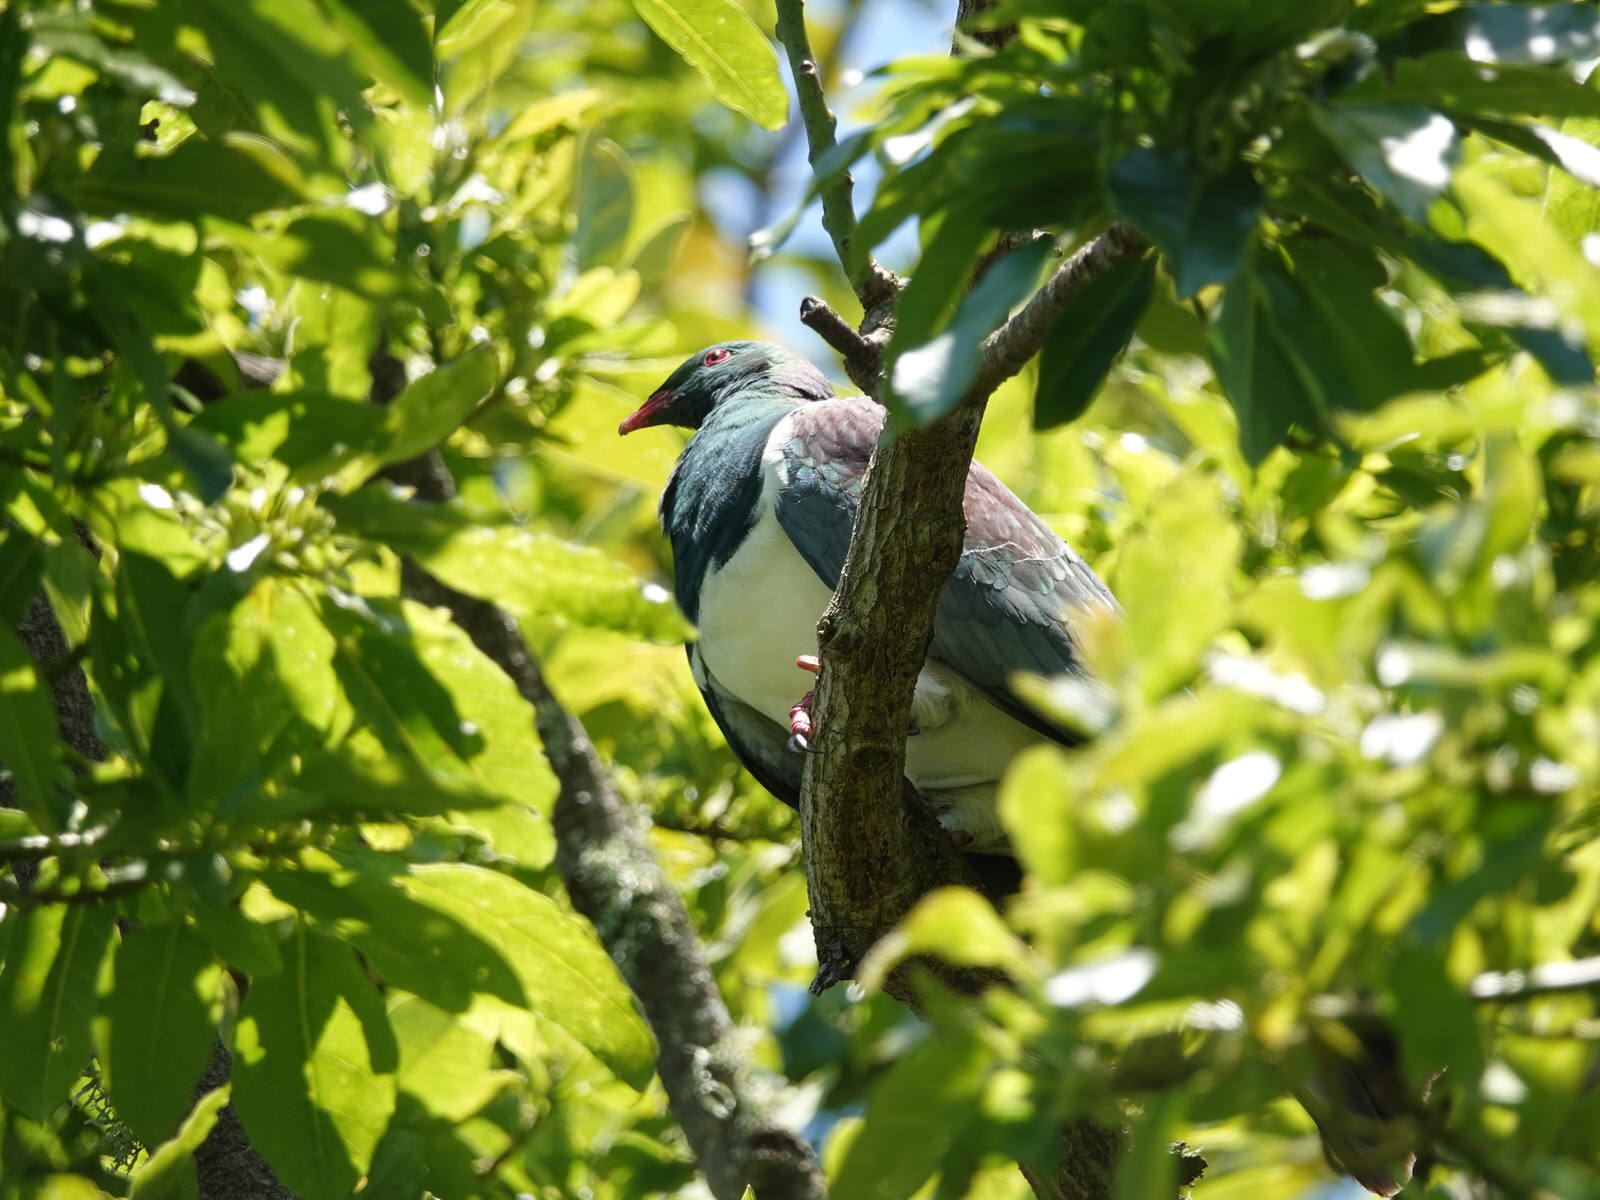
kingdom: Animalia
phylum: Chordata
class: Aves
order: Columbiformes
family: Columbidae
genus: Hemiphaga
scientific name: Hemiphaga novaeseelandiae
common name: New zealand pigeon
